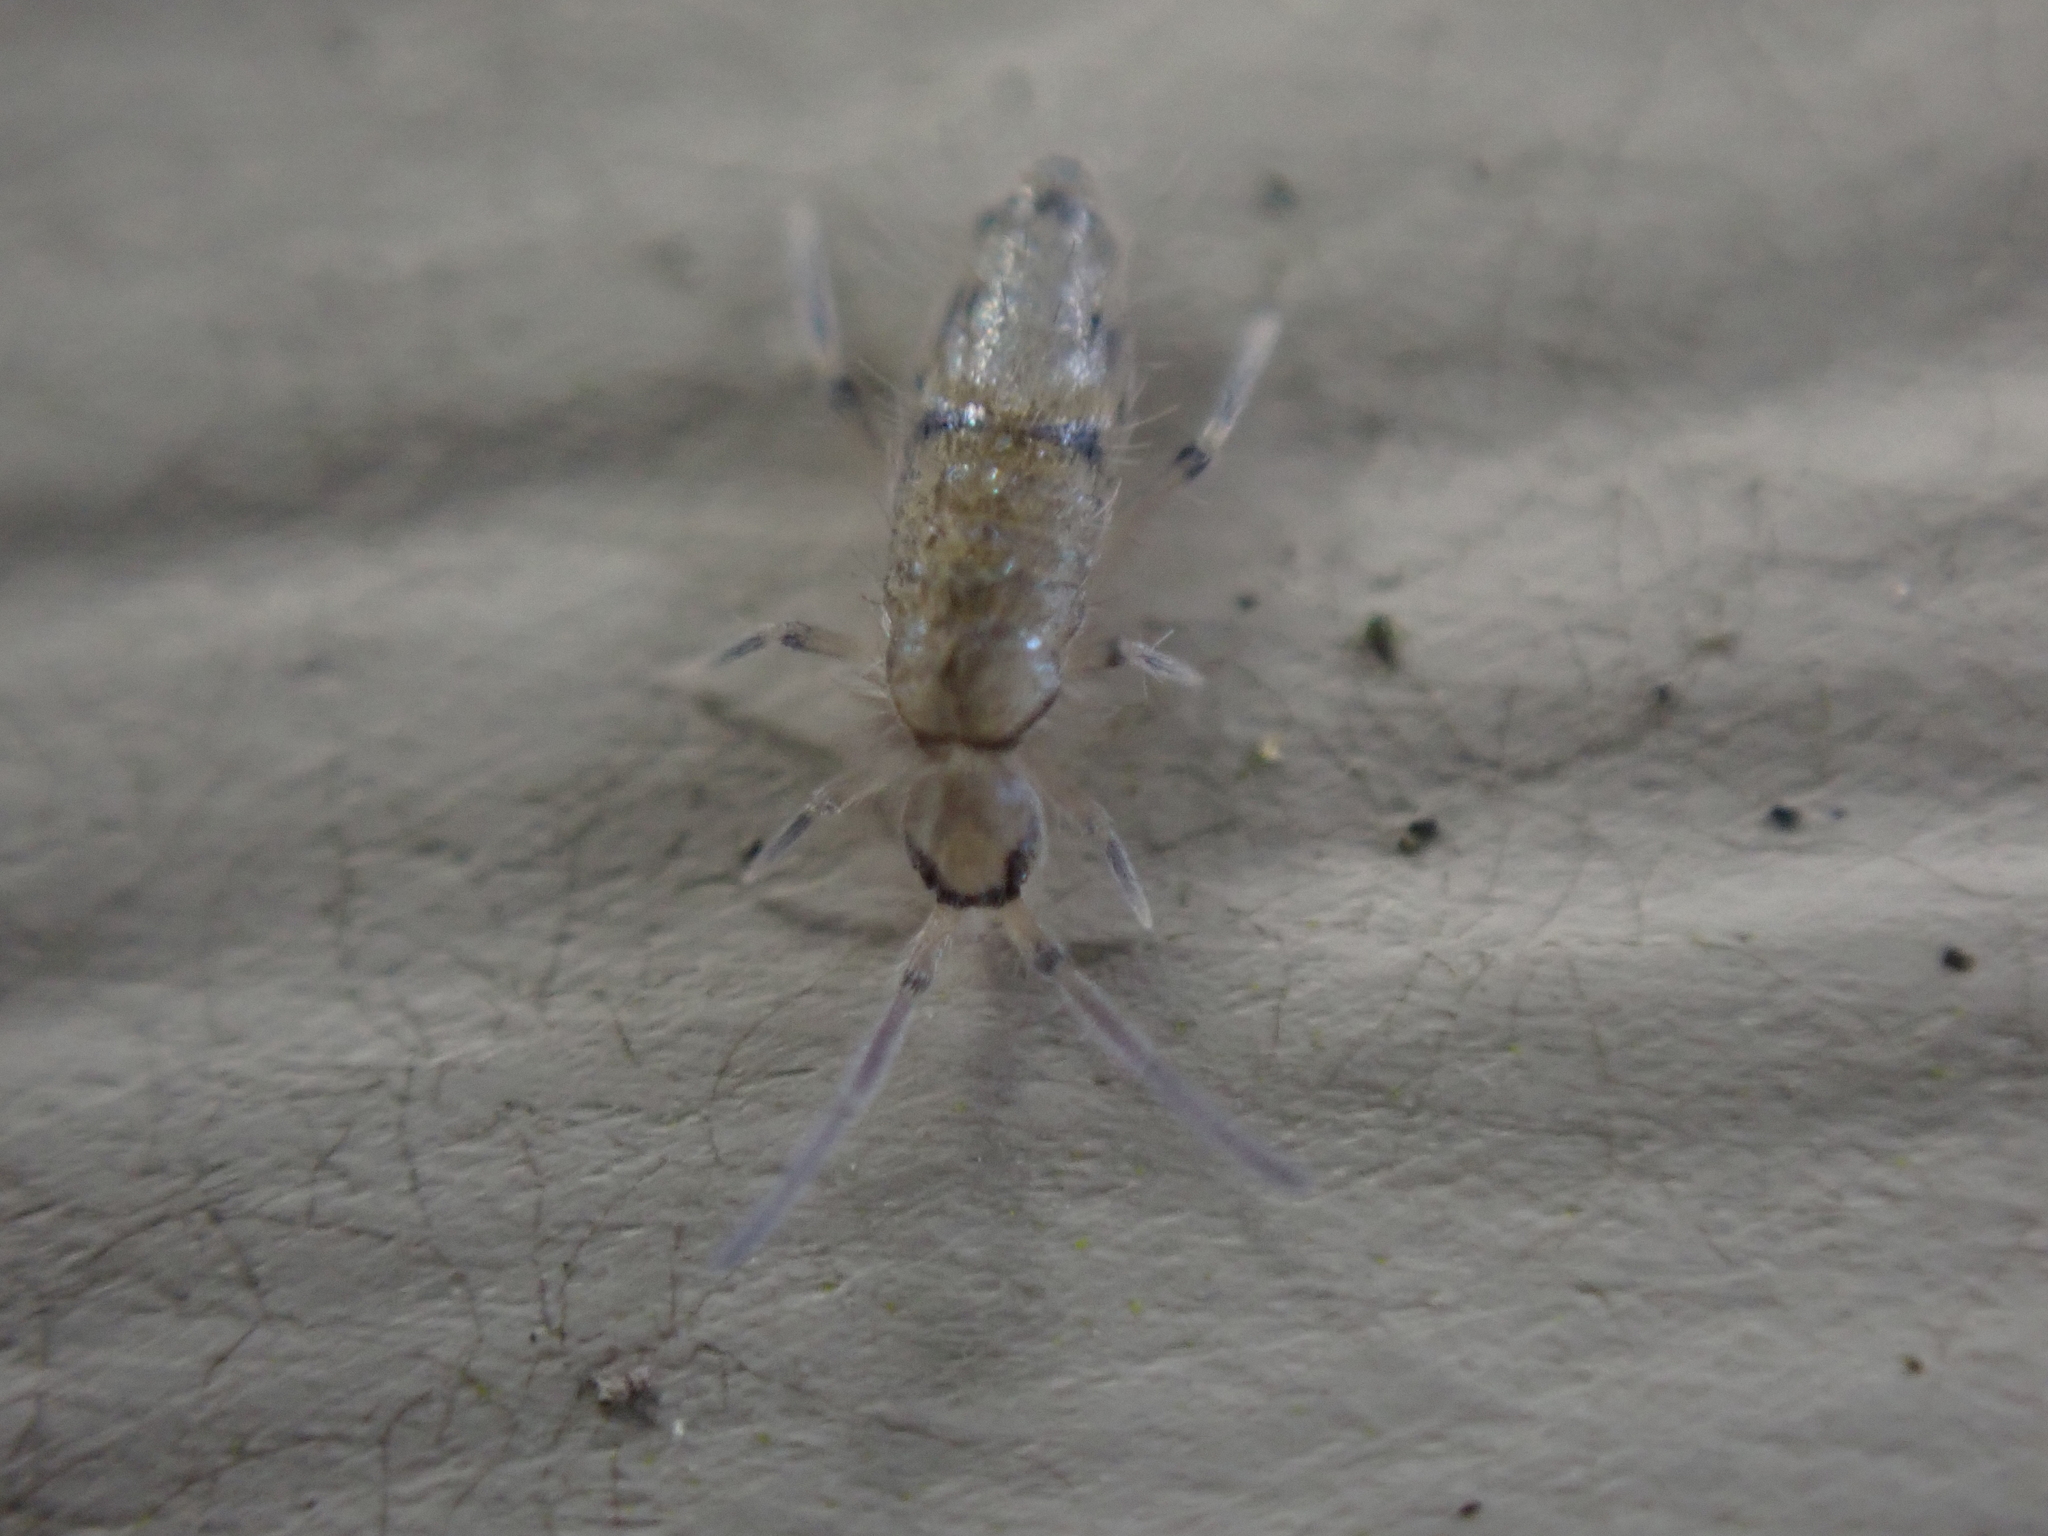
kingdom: Animalia
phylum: Arthropoda
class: Collembola
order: Entomobryomorpha
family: Entomobryidae
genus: Willowsia
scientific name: Willowsia nigromaculata
